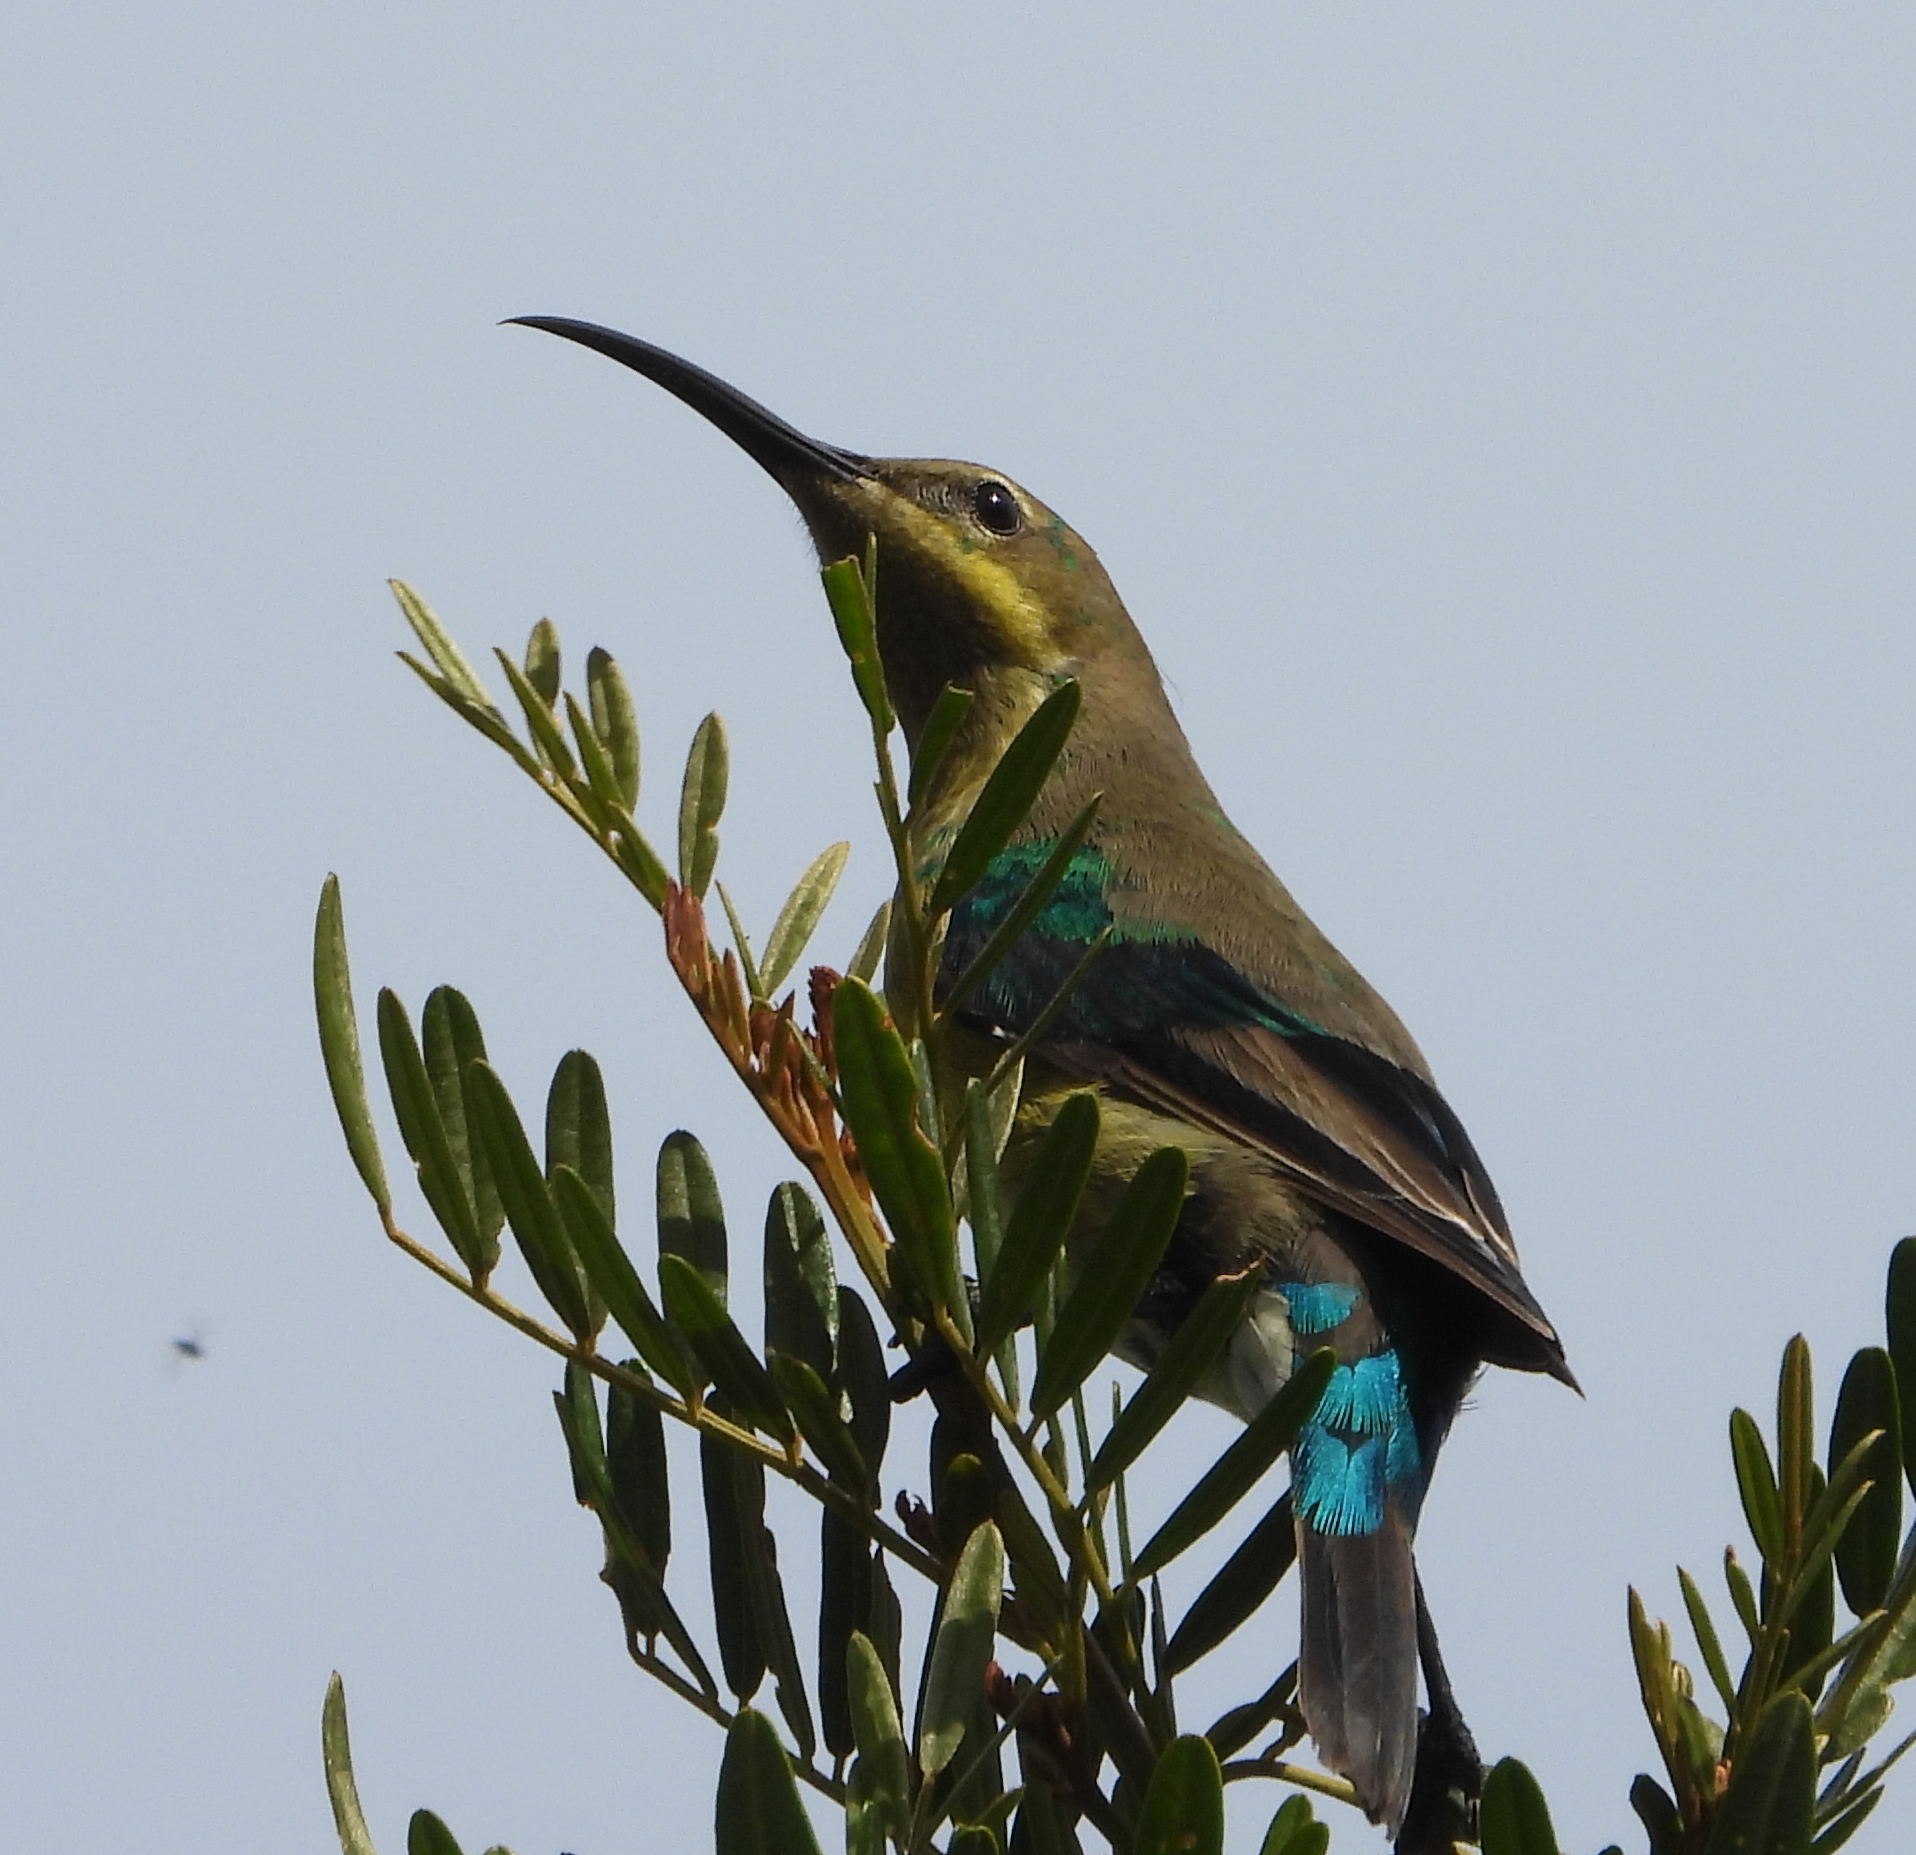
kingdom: Animalia
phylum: Chordata
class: Aves
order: Passeriformes
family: Nectariniidae
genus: Nectarinia
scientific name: Nectarinia famosa
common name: Malachite sunbird
